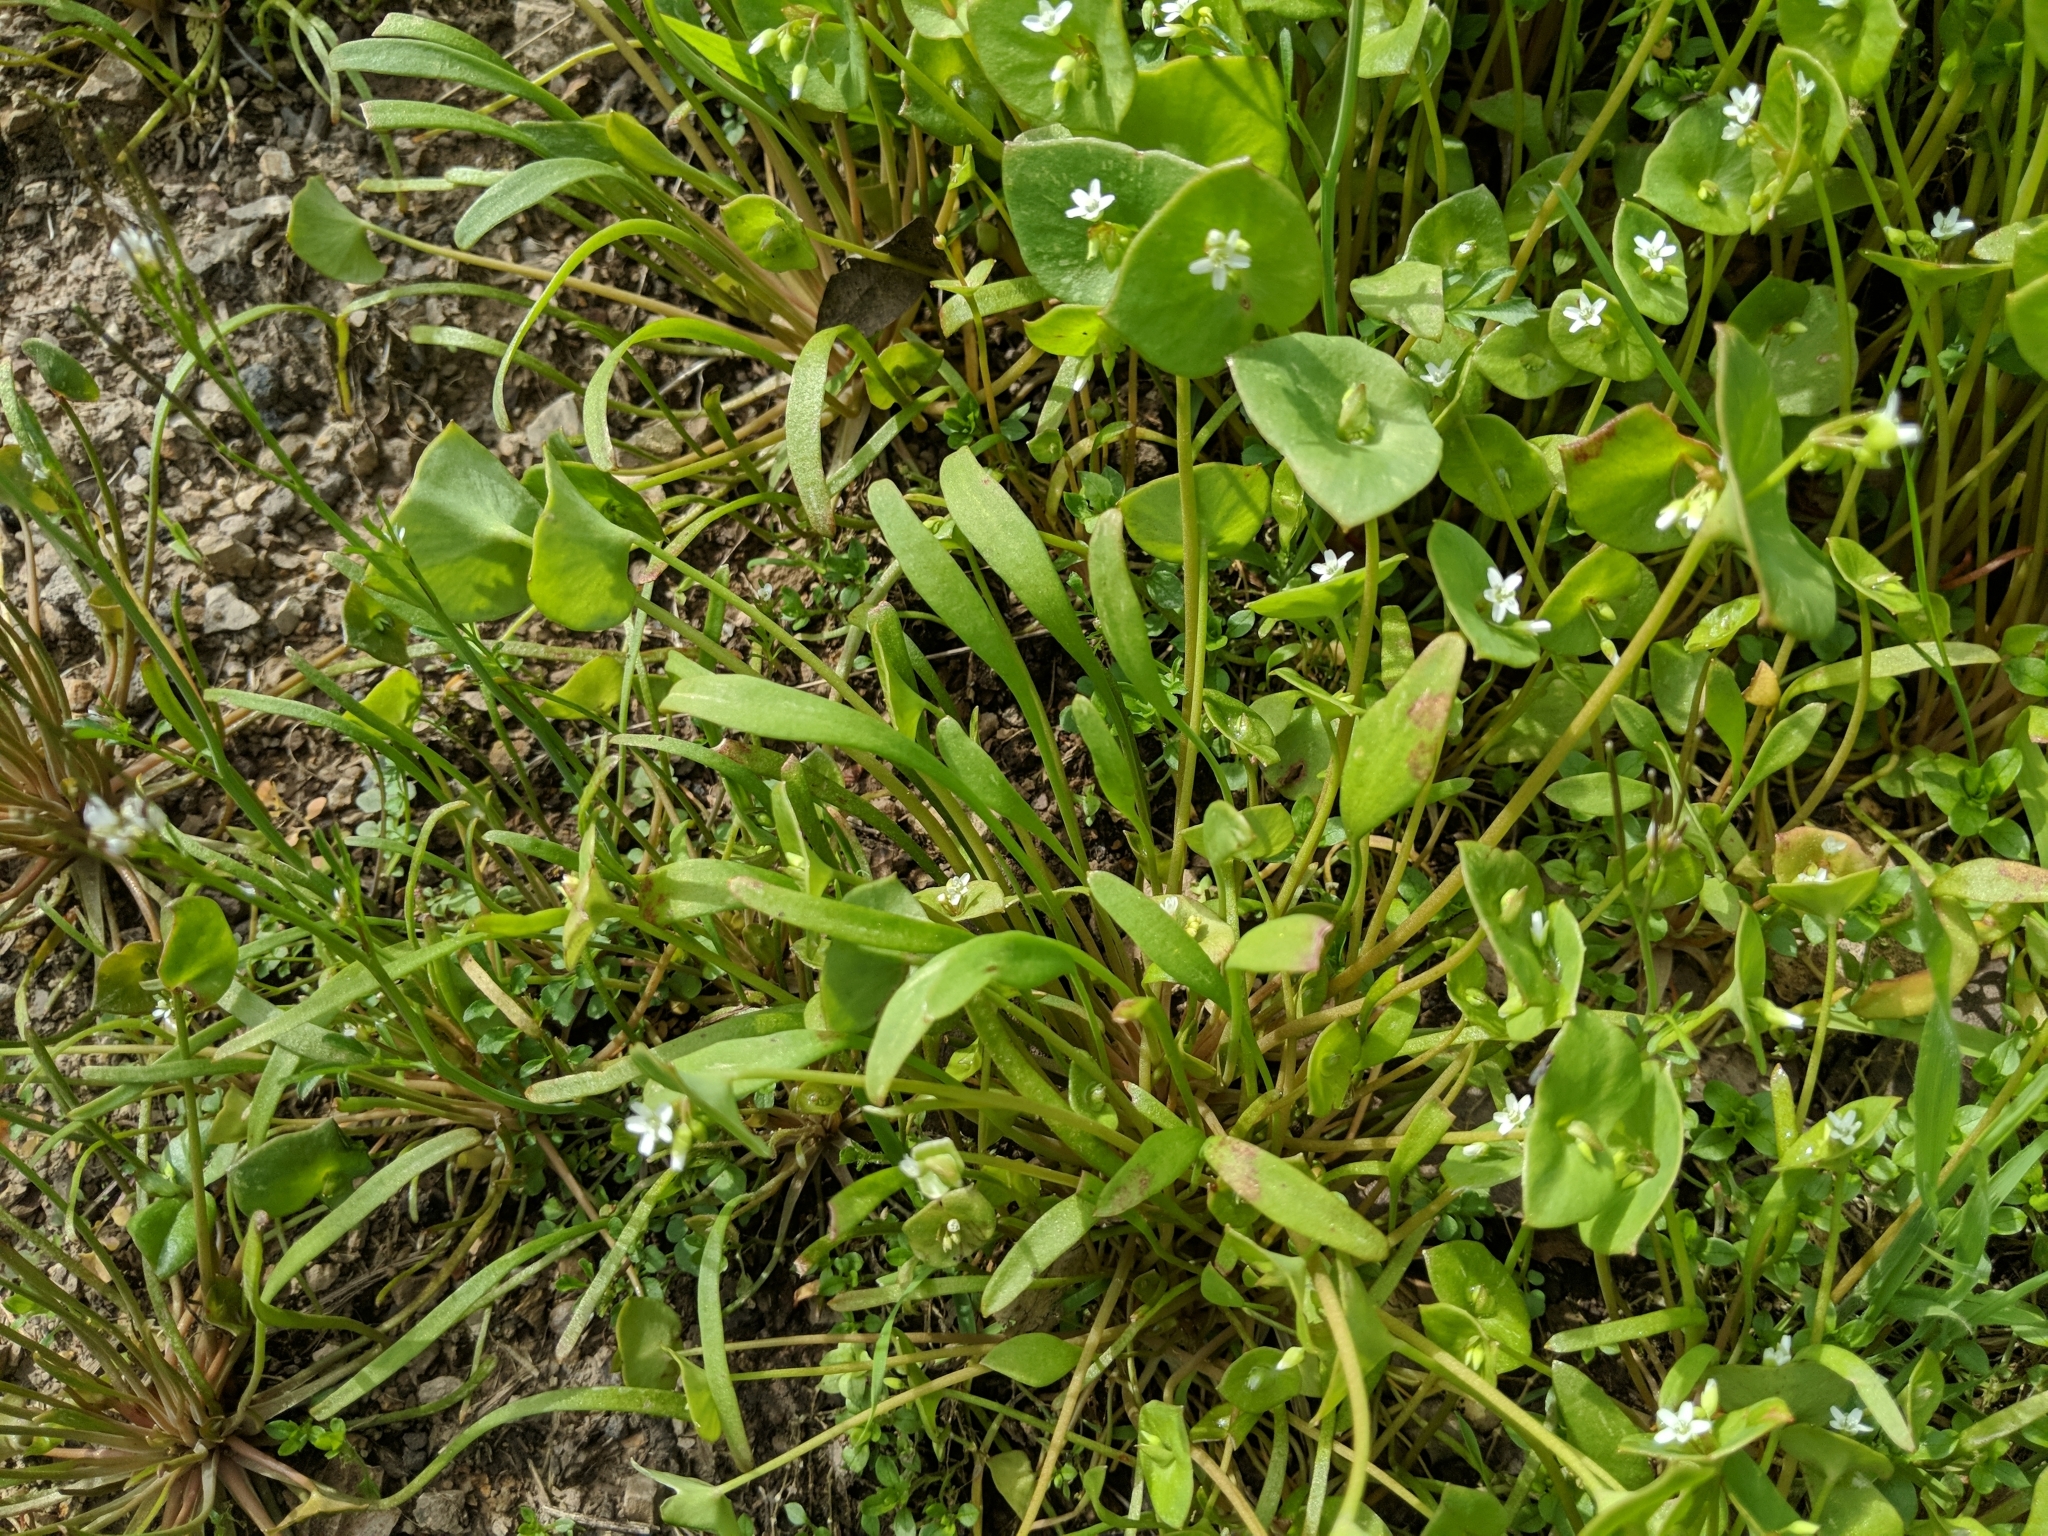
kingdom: Animalia
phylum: Arthropoda
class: Insecta
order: Diptera
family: Sciomyzidae
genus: Limnia
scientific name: Limnia
